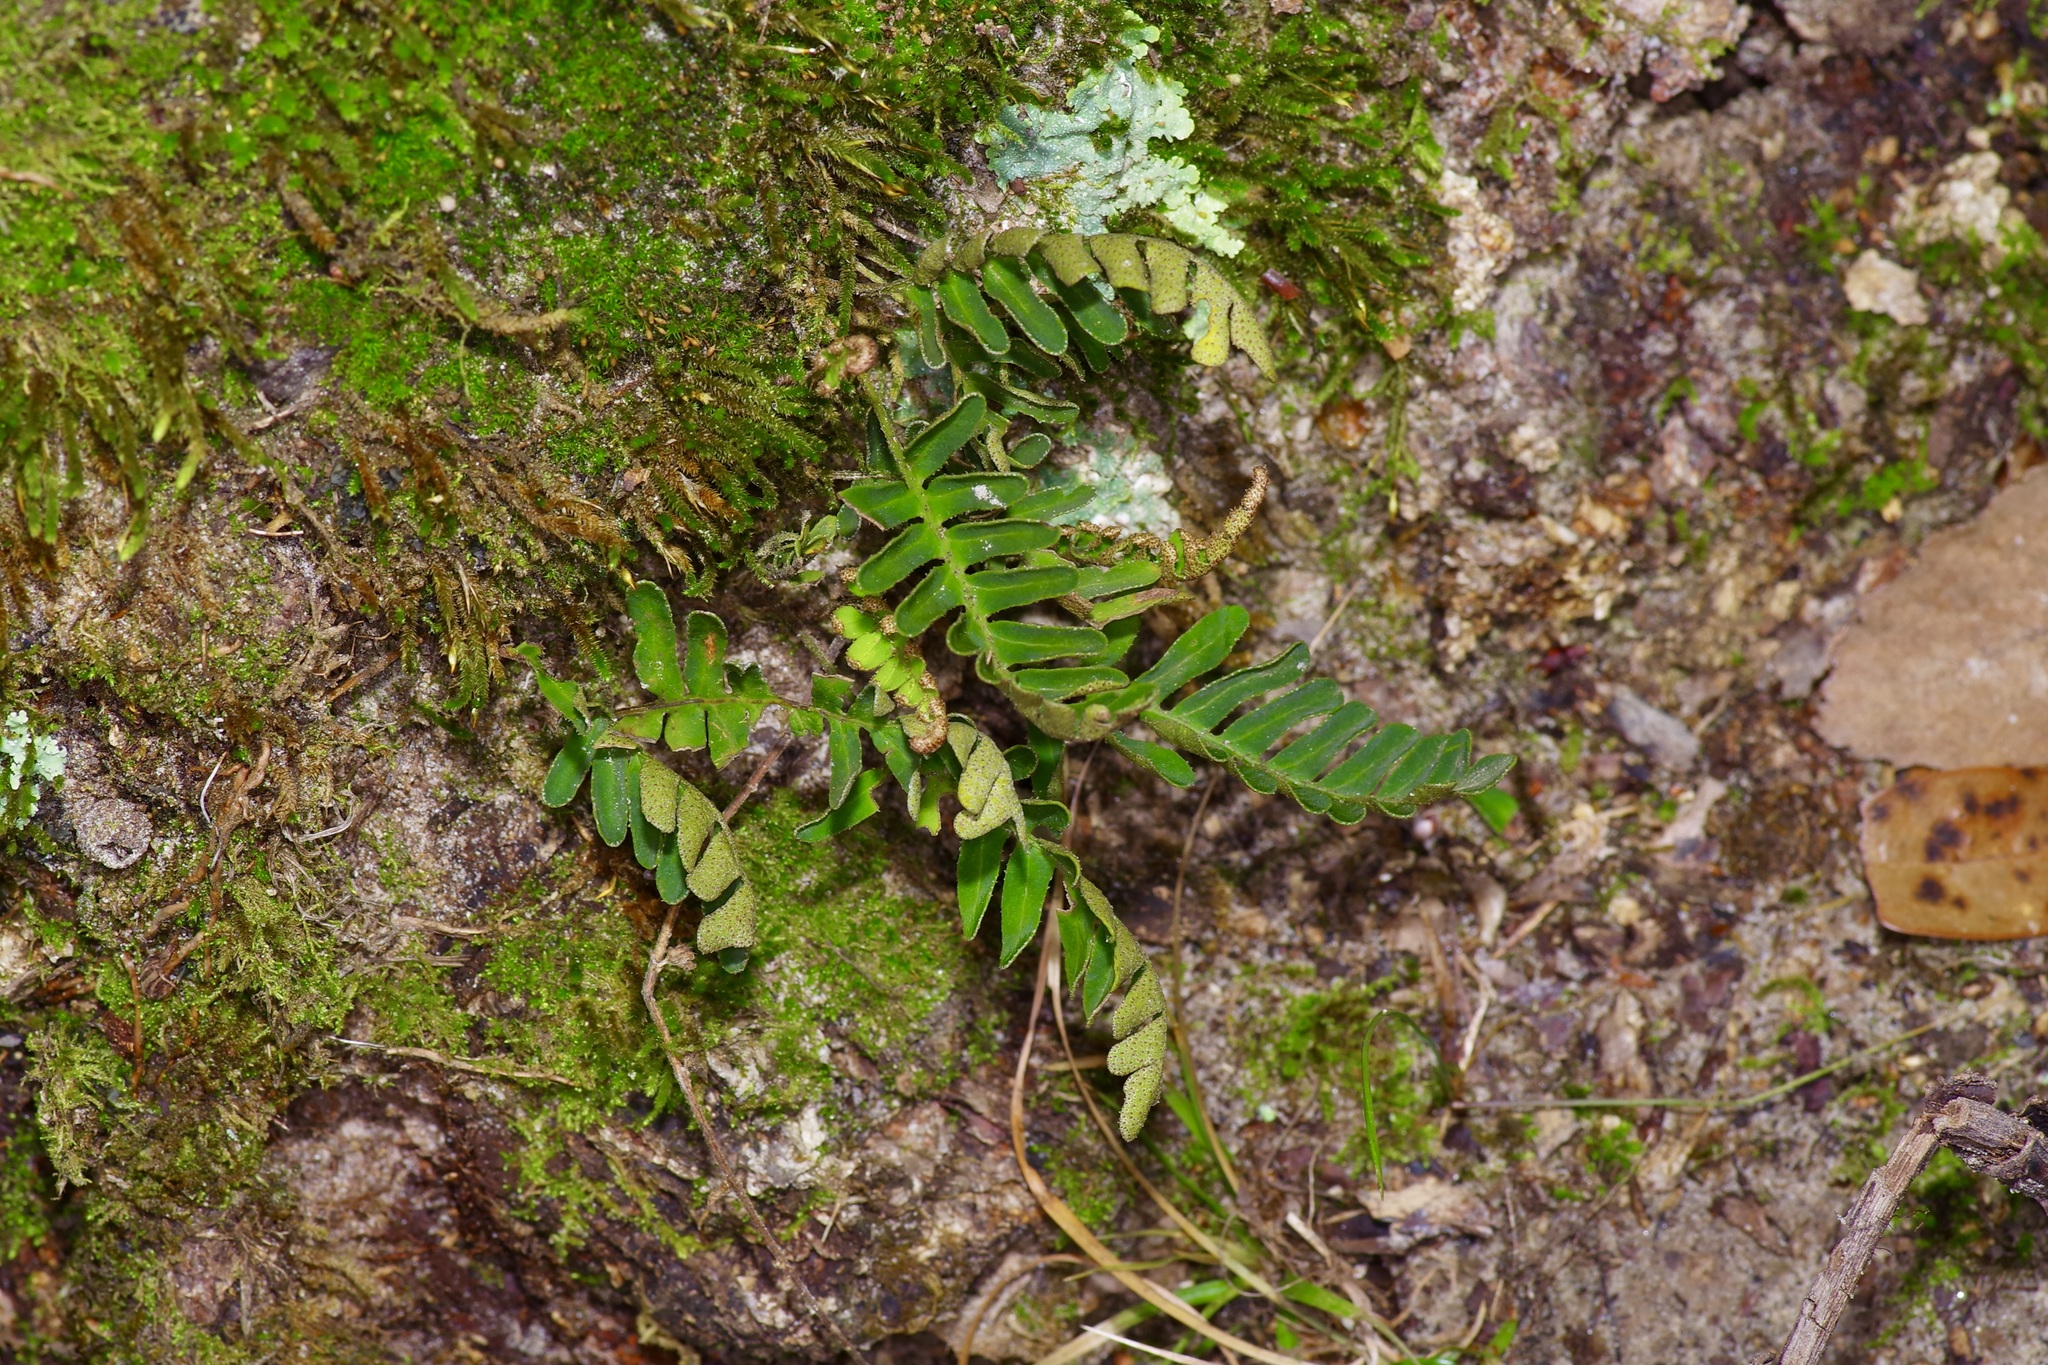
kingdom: Plantae
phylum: Bryophyta
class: Bryopsida
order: Hypnales
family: Leucodontaceae
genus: Leucodon
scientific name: Leucodon julaceus
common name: Smooth hook moss
